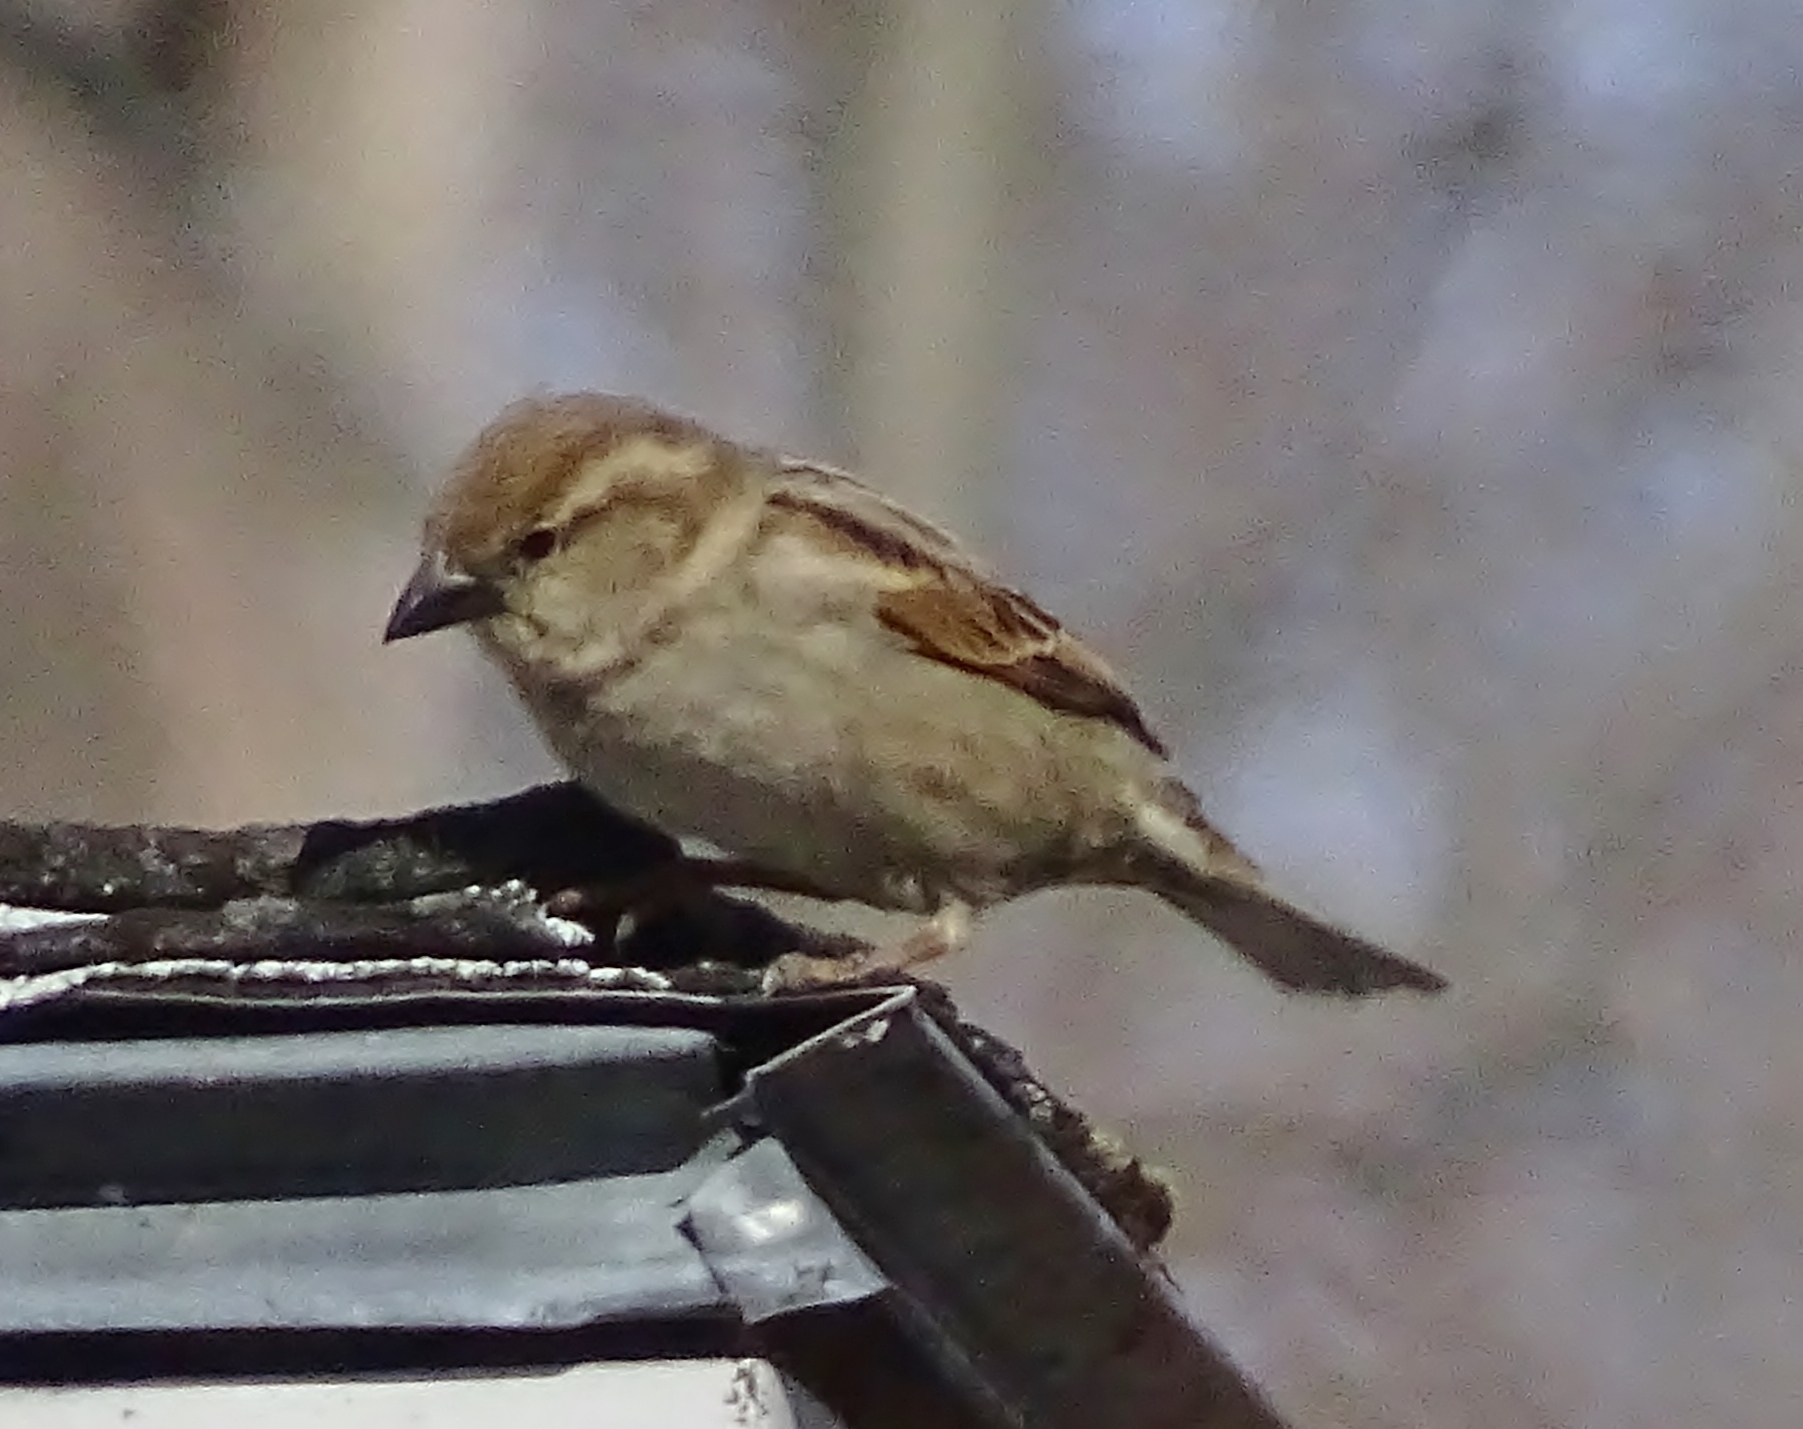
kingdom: Animalia
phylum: Chordata
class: Aves
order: Passeriformes
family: Passeridae
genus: Passer
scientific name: Passer domesticus
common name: House sparrow
